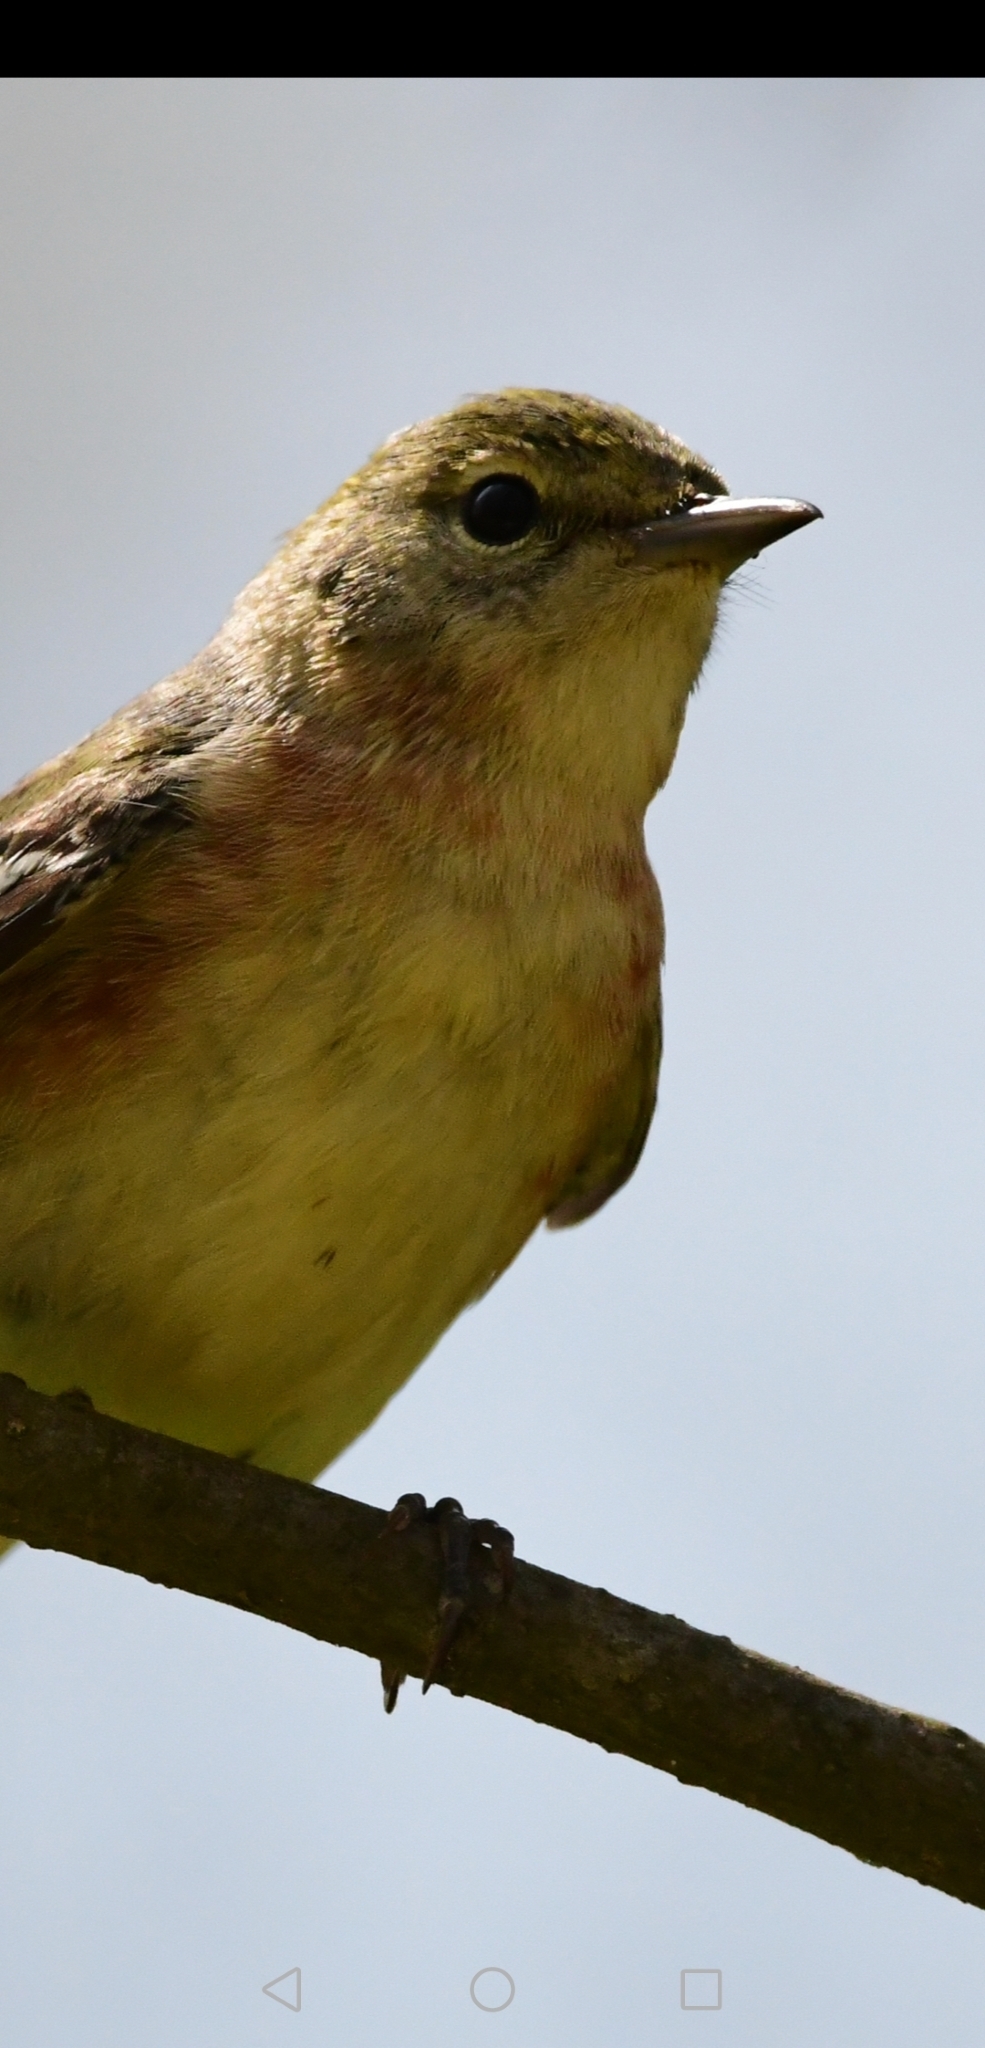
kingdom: Animalia
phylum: Chordata
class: Aves
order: Passeriformes
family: Parulidae
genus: Setophaga
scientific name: Setophaga castanea
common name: Bay-breasted warbler
